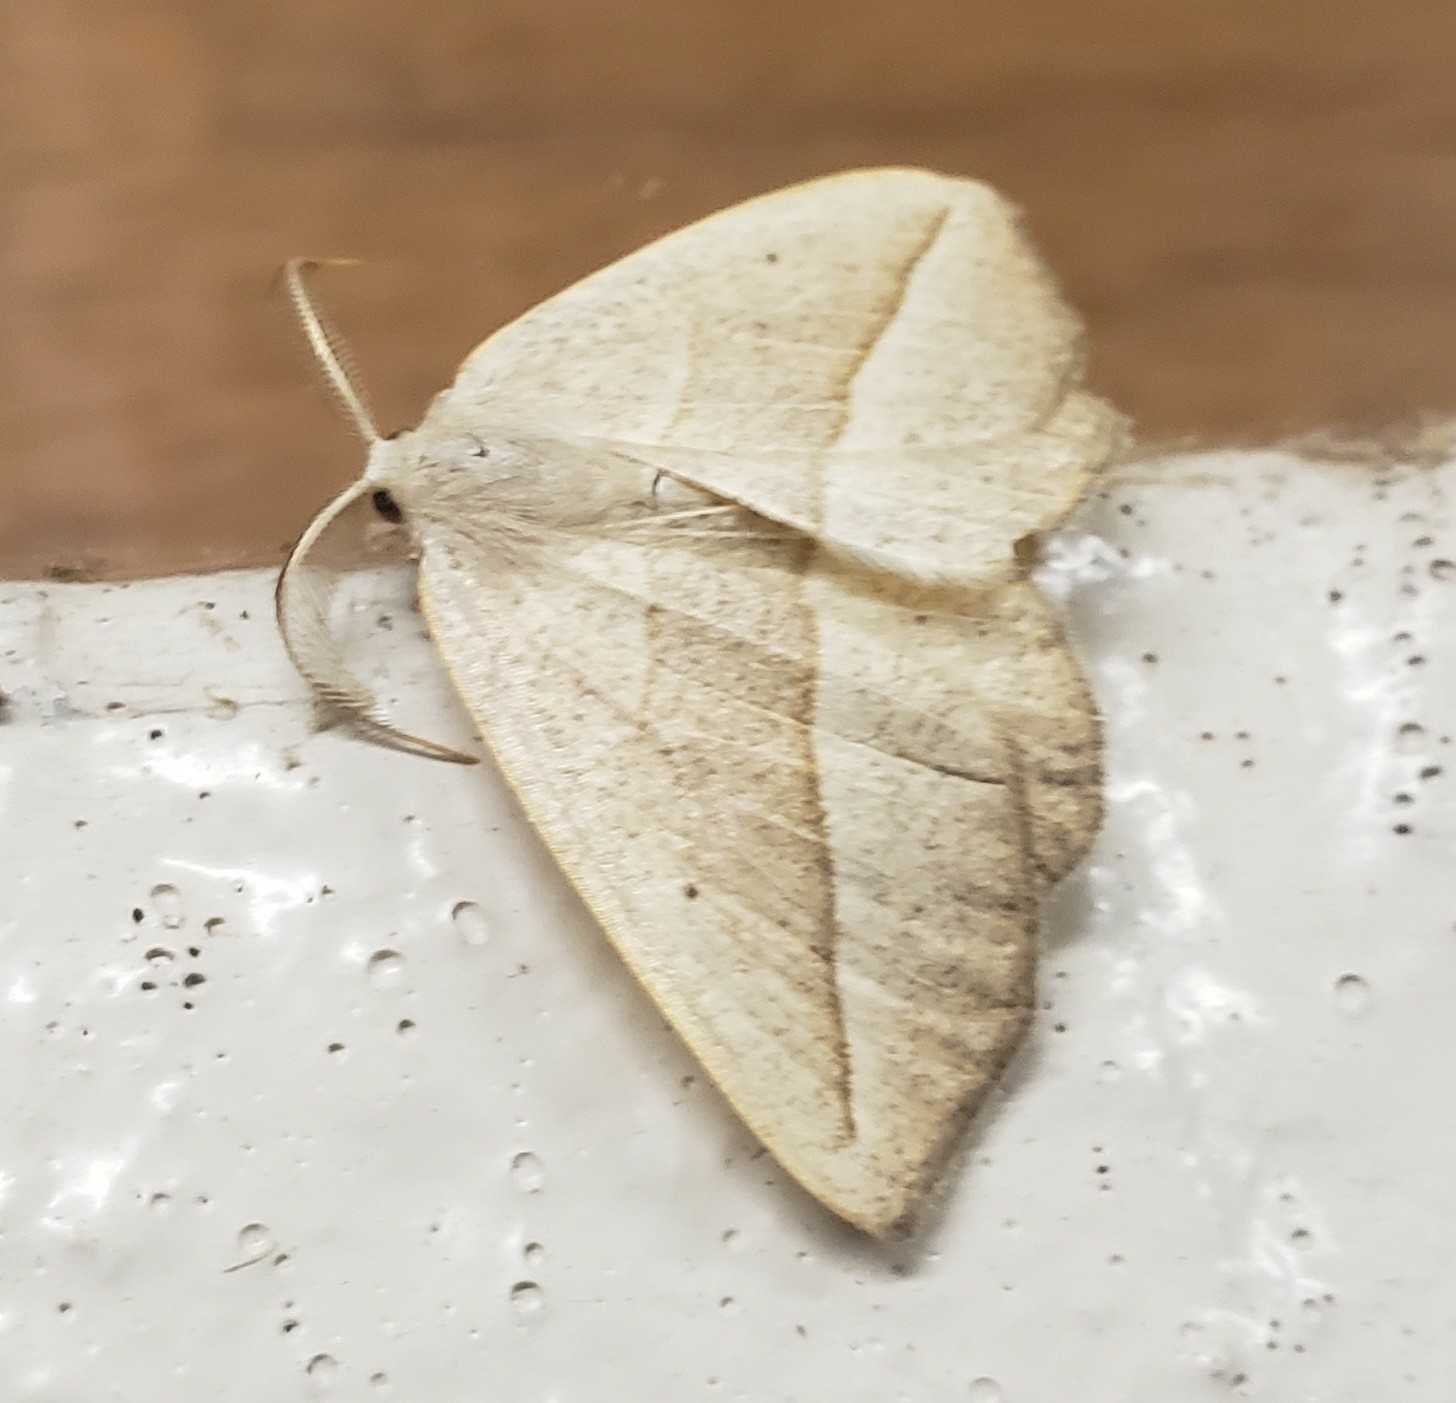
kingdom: Animalia
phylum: Arthropoda
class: Insecta
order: Lepidoptera
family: Geometridae
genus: Eusarca
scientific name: Eusarca confusaria
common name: Confused eusarca
